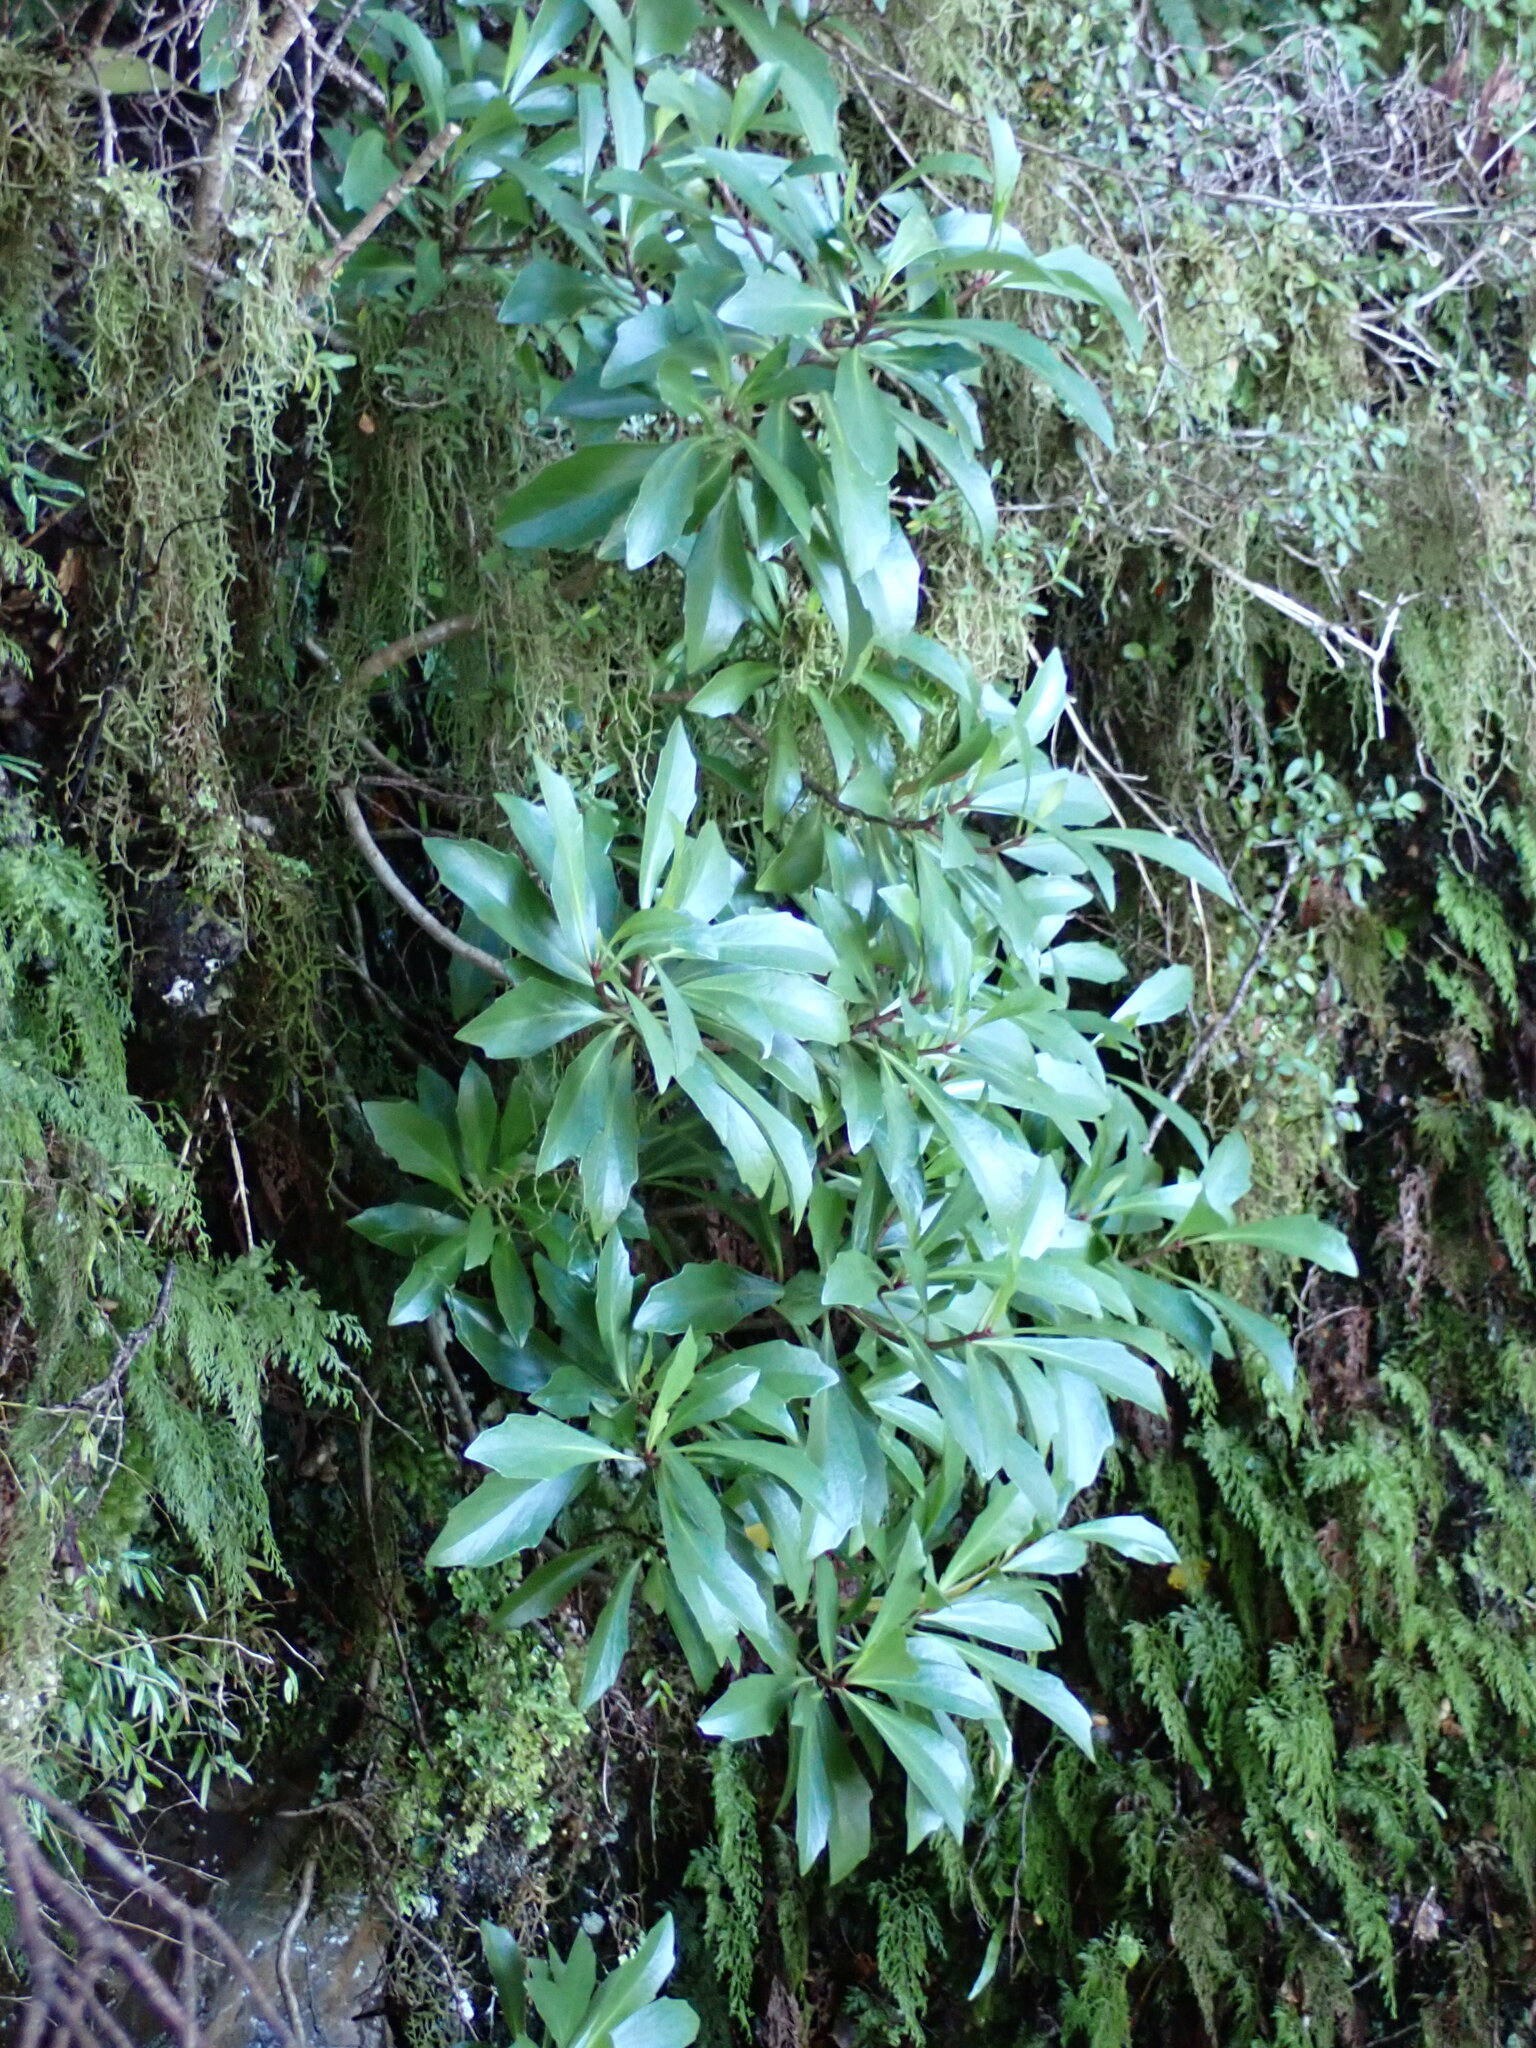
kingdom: Plantae
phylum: Tracheophyta
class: Magnoliopsida
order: Asterales
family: Asteraceae
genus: Brachyglottis
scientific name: Brachyglottis kirkii
